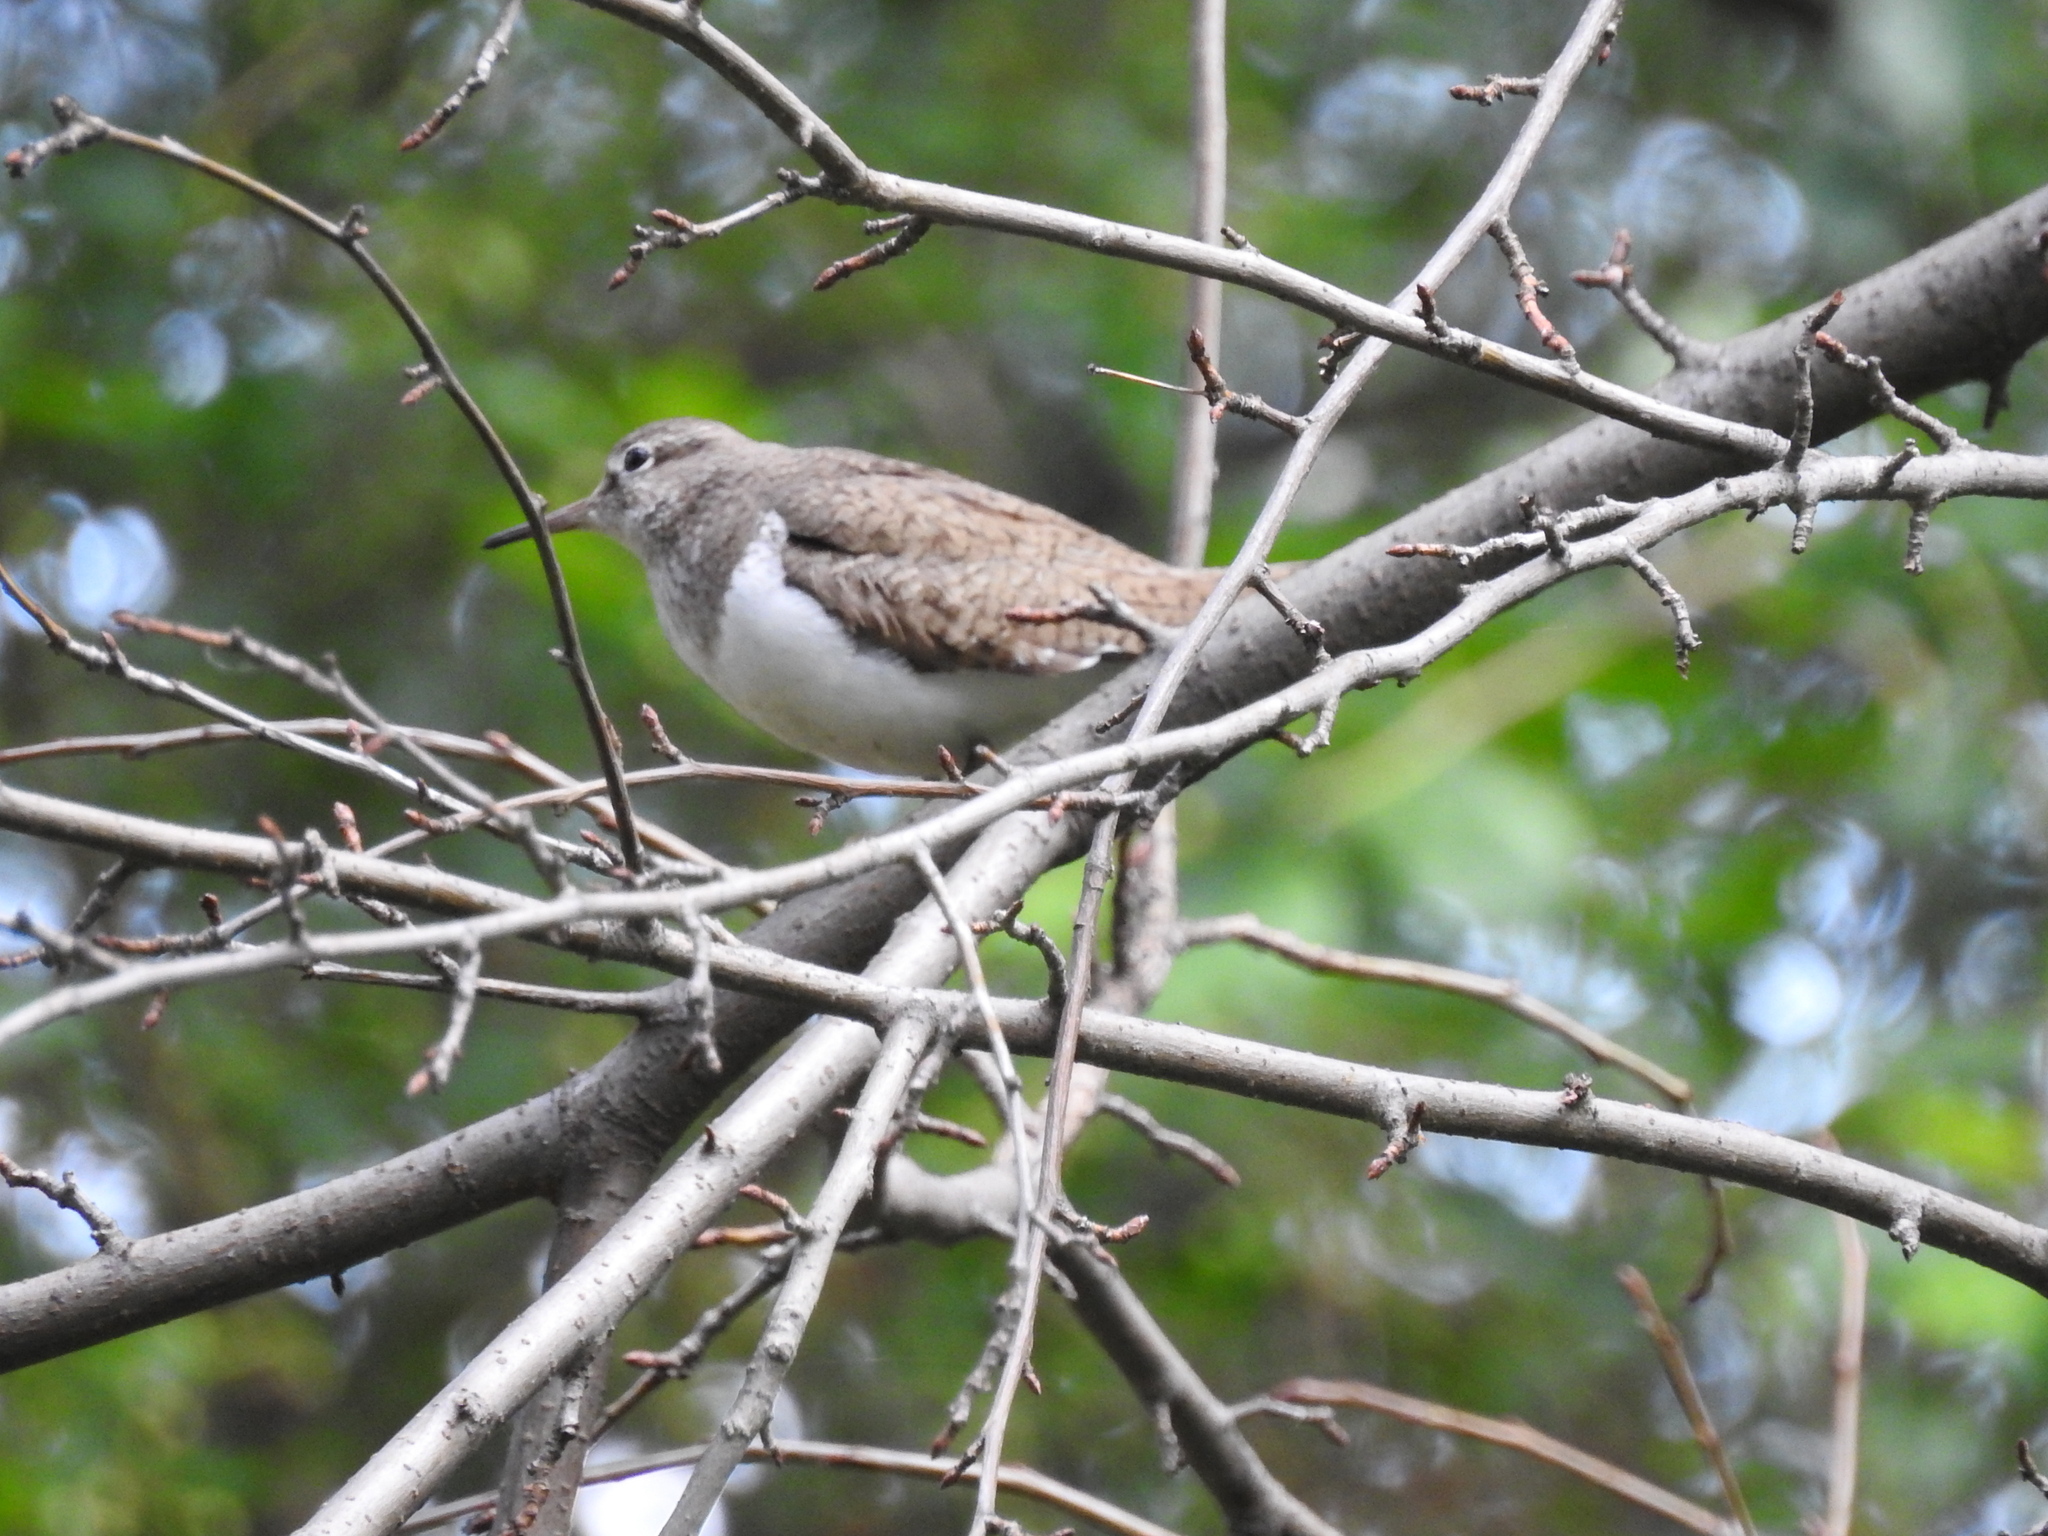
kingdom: Animalia
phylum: Chordata
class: Aves
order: Charadriiformes
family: Scolopacidae
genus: Actitis
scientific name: Actitis hypoleucos
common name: Common sandpiper
